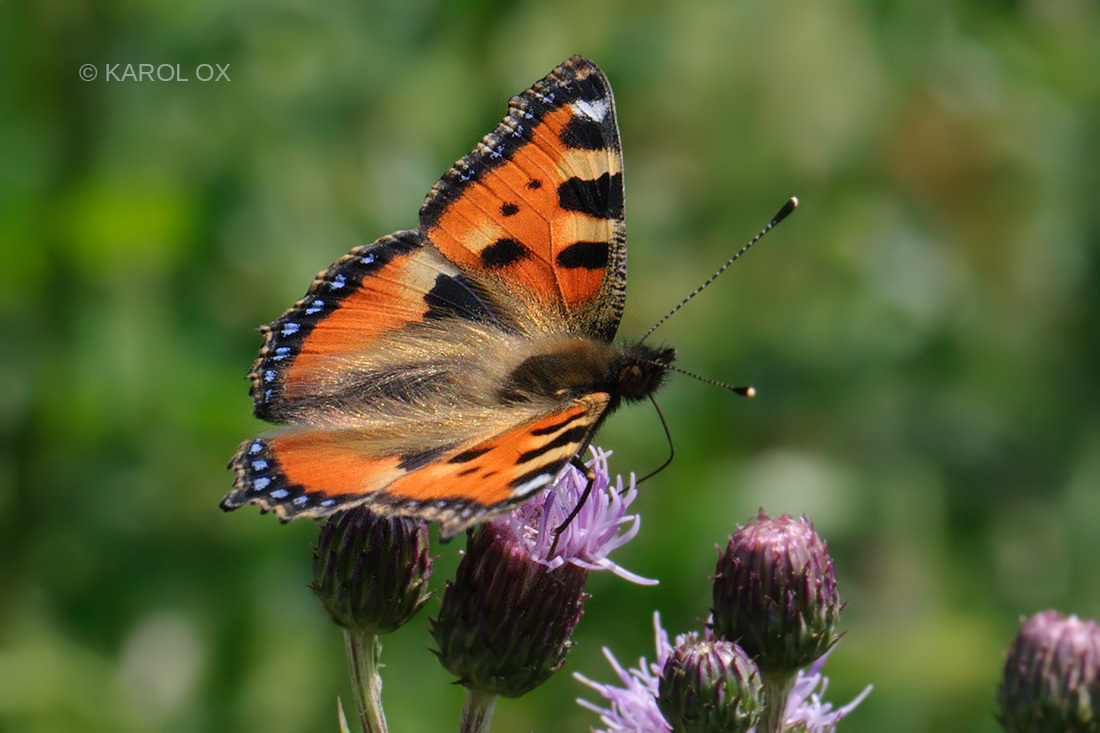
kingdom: Animalia
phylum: Arthropoda
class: Insecta
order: Lepidoptera
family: Nymphalidae
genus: Aglais
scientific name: Aglais urticae
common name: Small tortoiseshell
